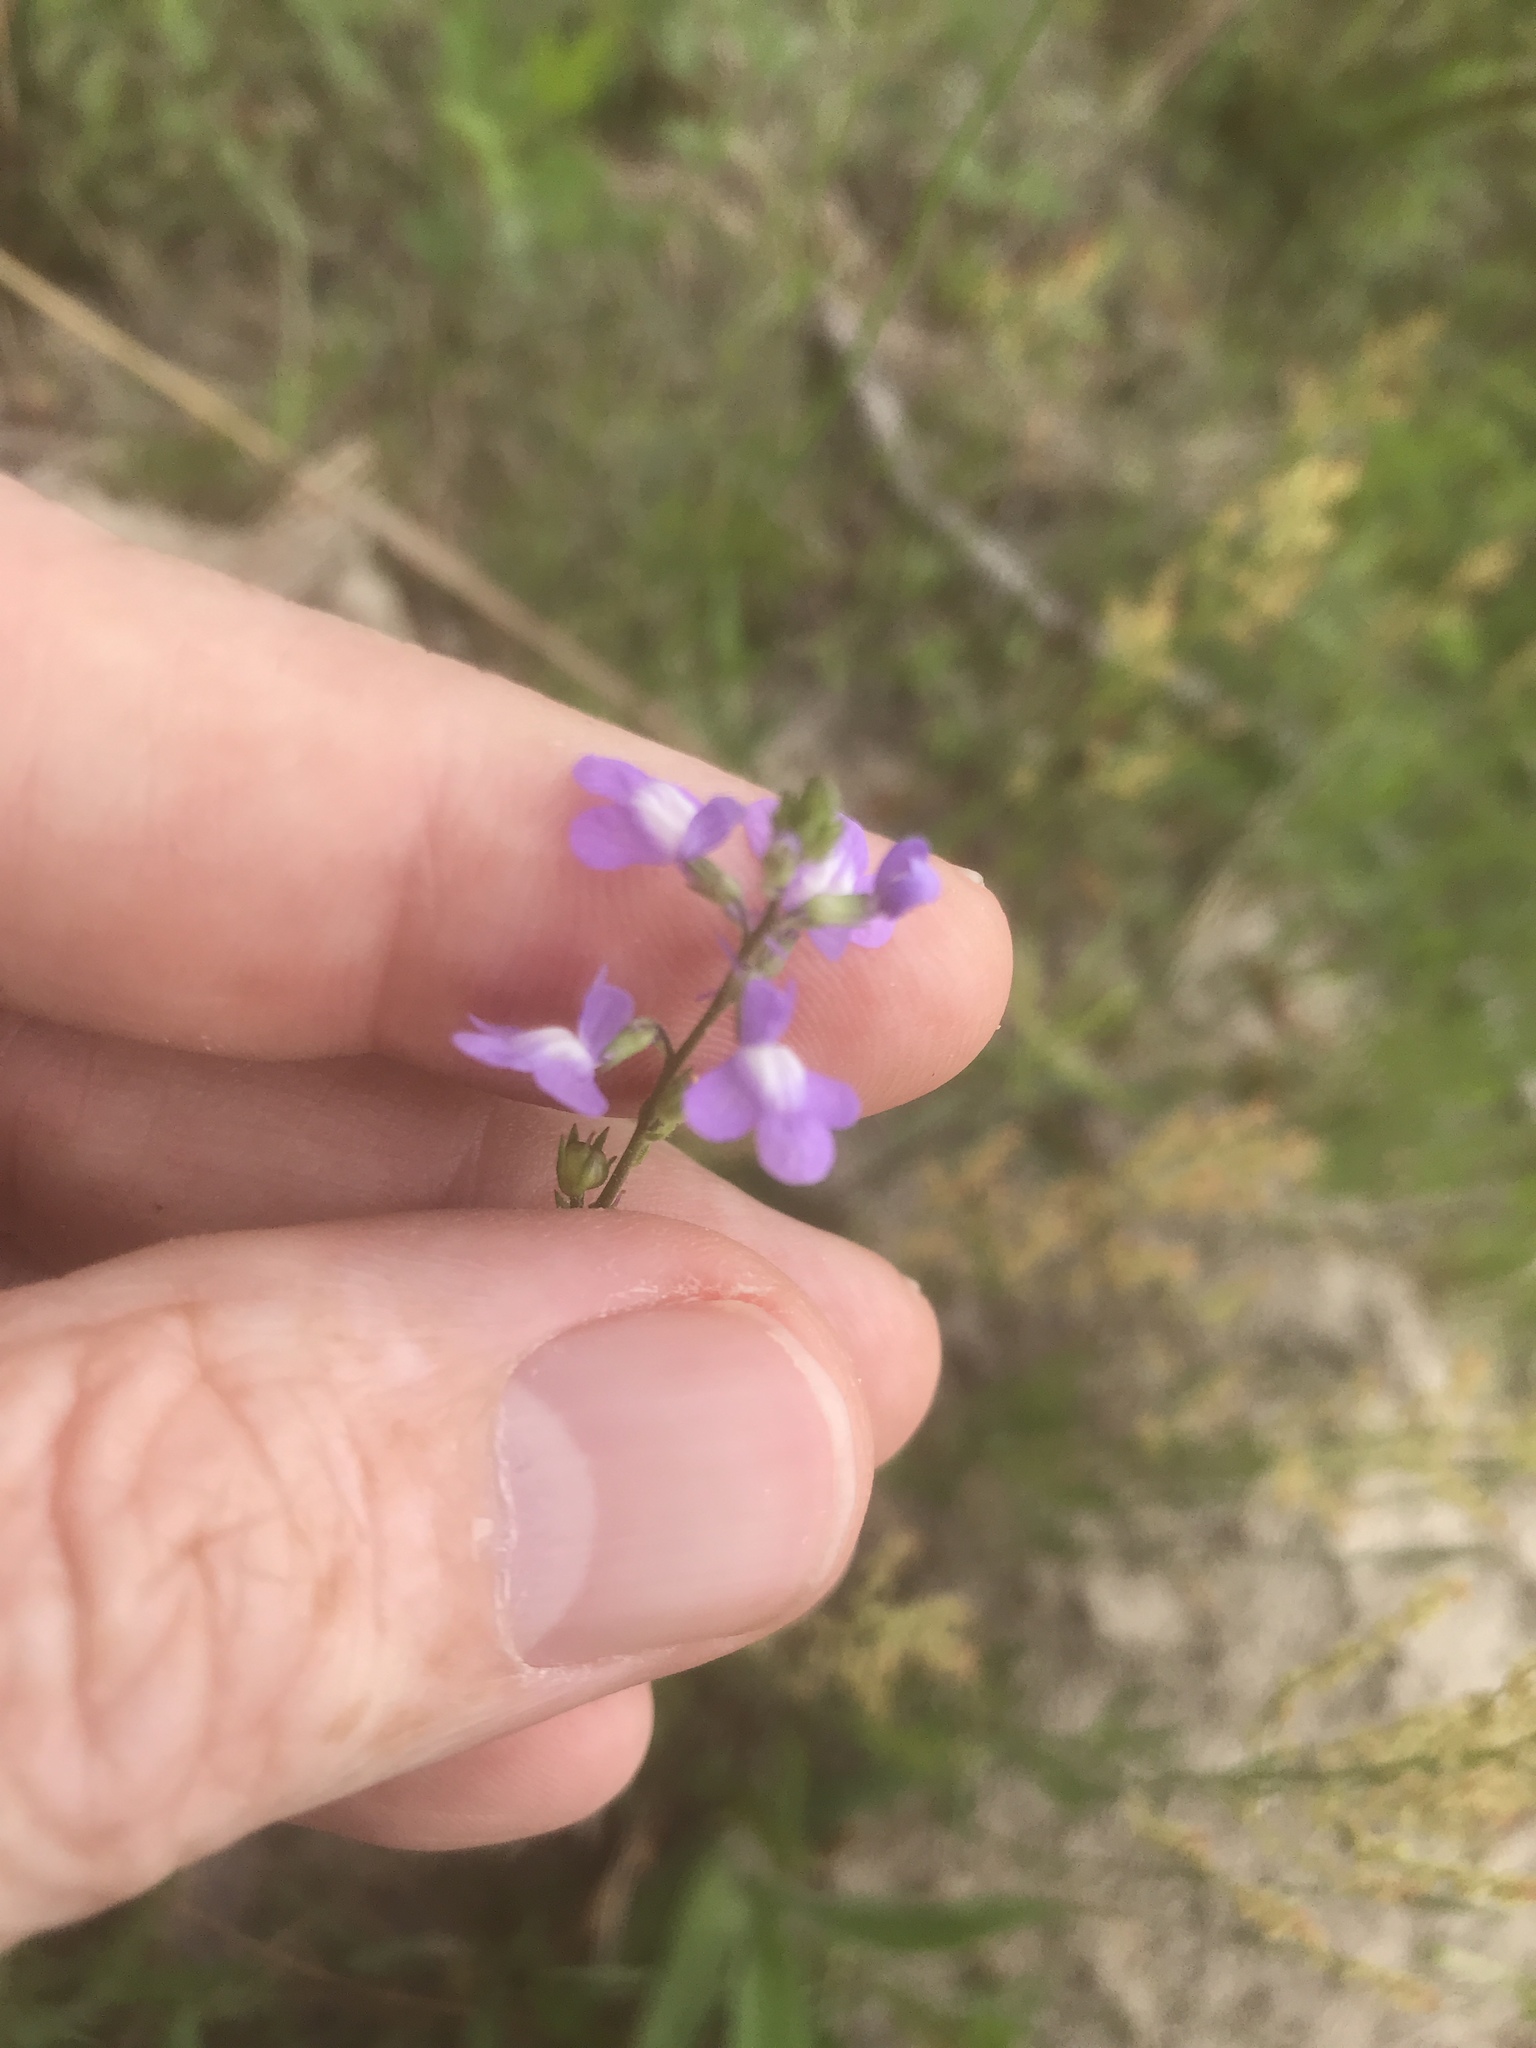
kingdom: Plantae
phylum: Tracheophyta
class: Magnoliopsida
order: Lamiales
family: Plantaginaceae
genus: Nuttallanthus
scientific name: Nuttallanthus canadensis
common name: Blue toadflax
